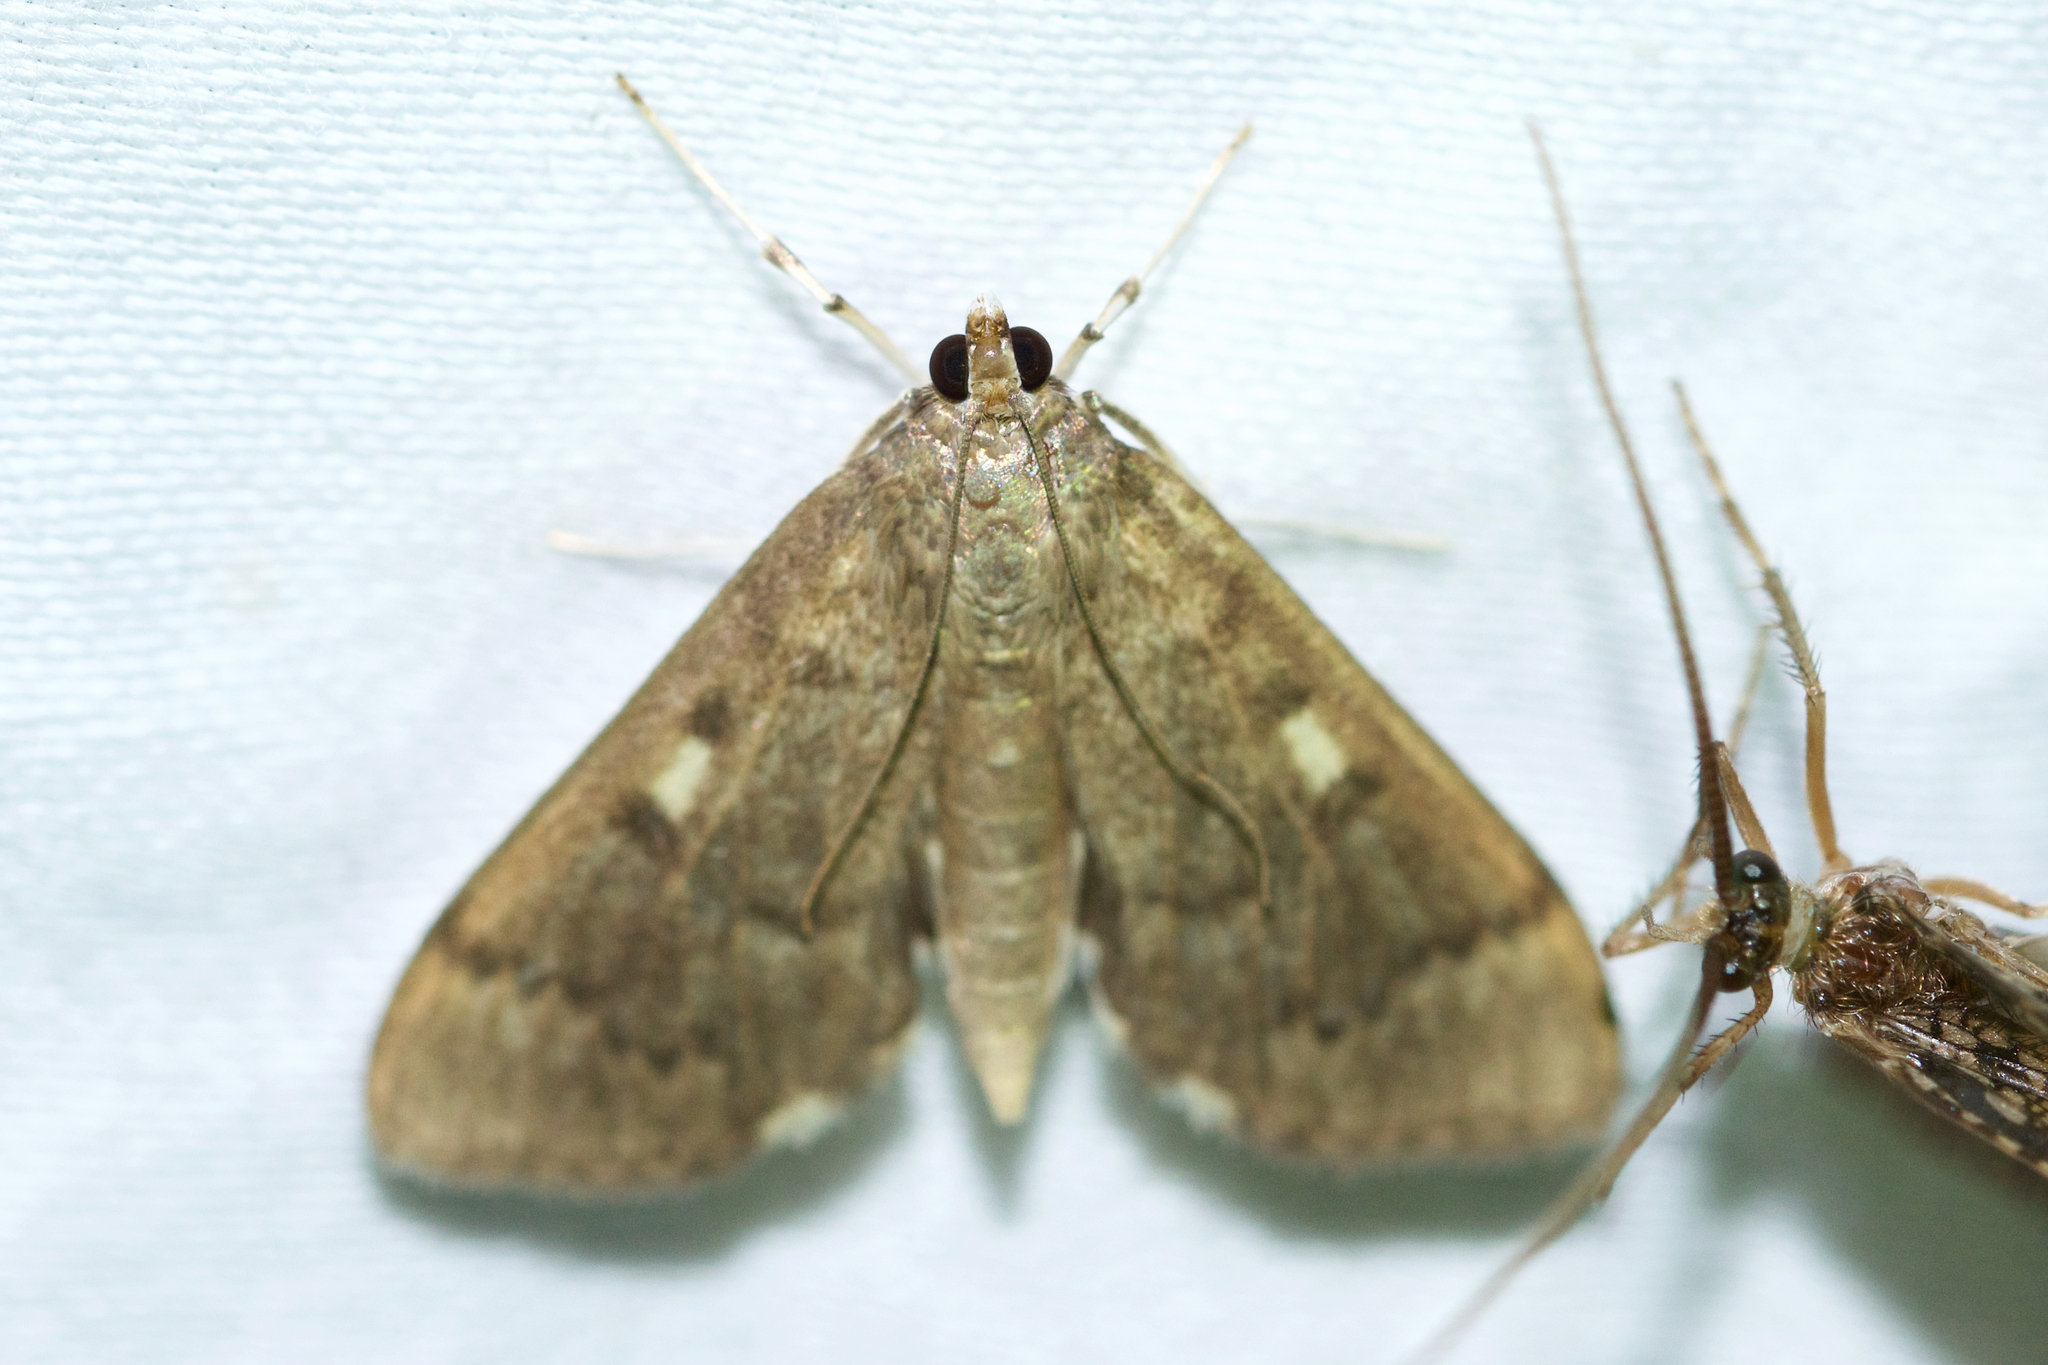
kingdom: Animalia
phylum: Arthropoda
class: Insecta
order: Lepidoptera
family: Crambidae
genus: Herpetogramma
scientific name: Herpetogramma aeglealis
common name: Serpentine webworm moth
